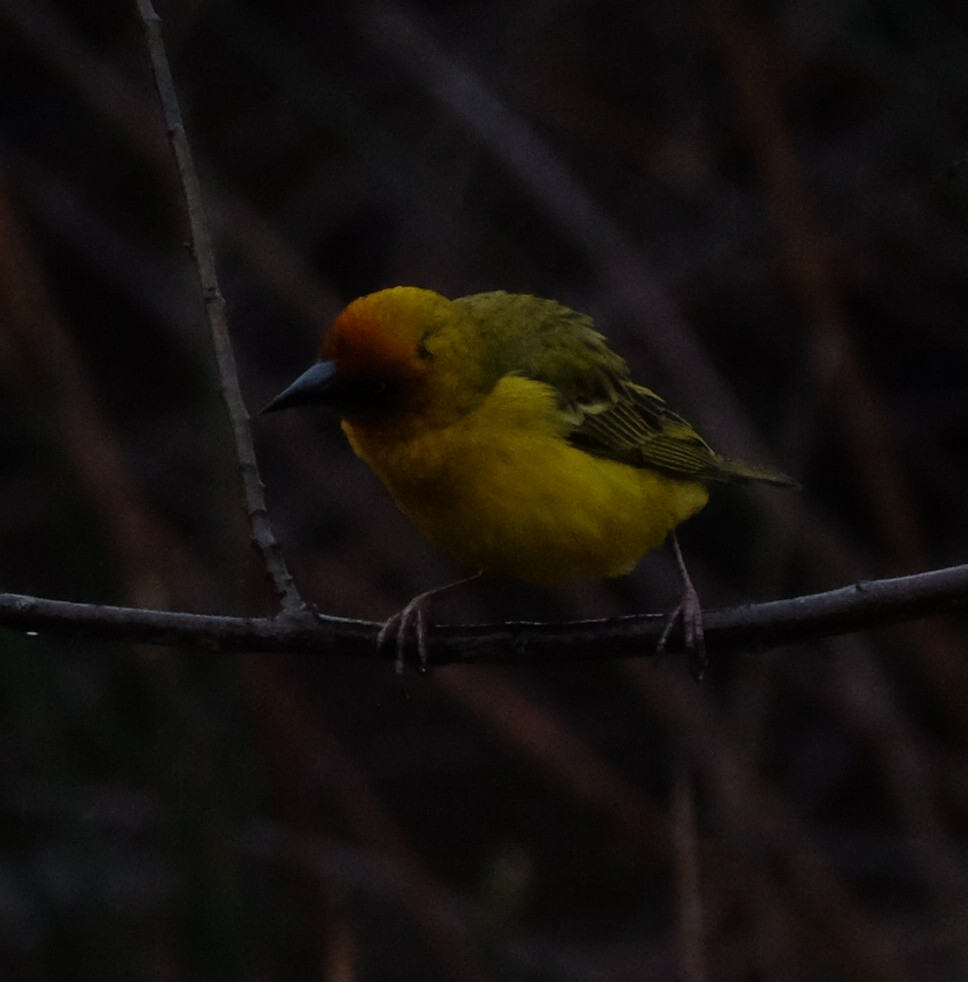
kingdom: Animalia
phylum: Chordata
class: Aves
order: Passeriformes
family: Ploceidae
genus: Ploceus
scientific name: Ploceus capensis
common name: Cape weaver
